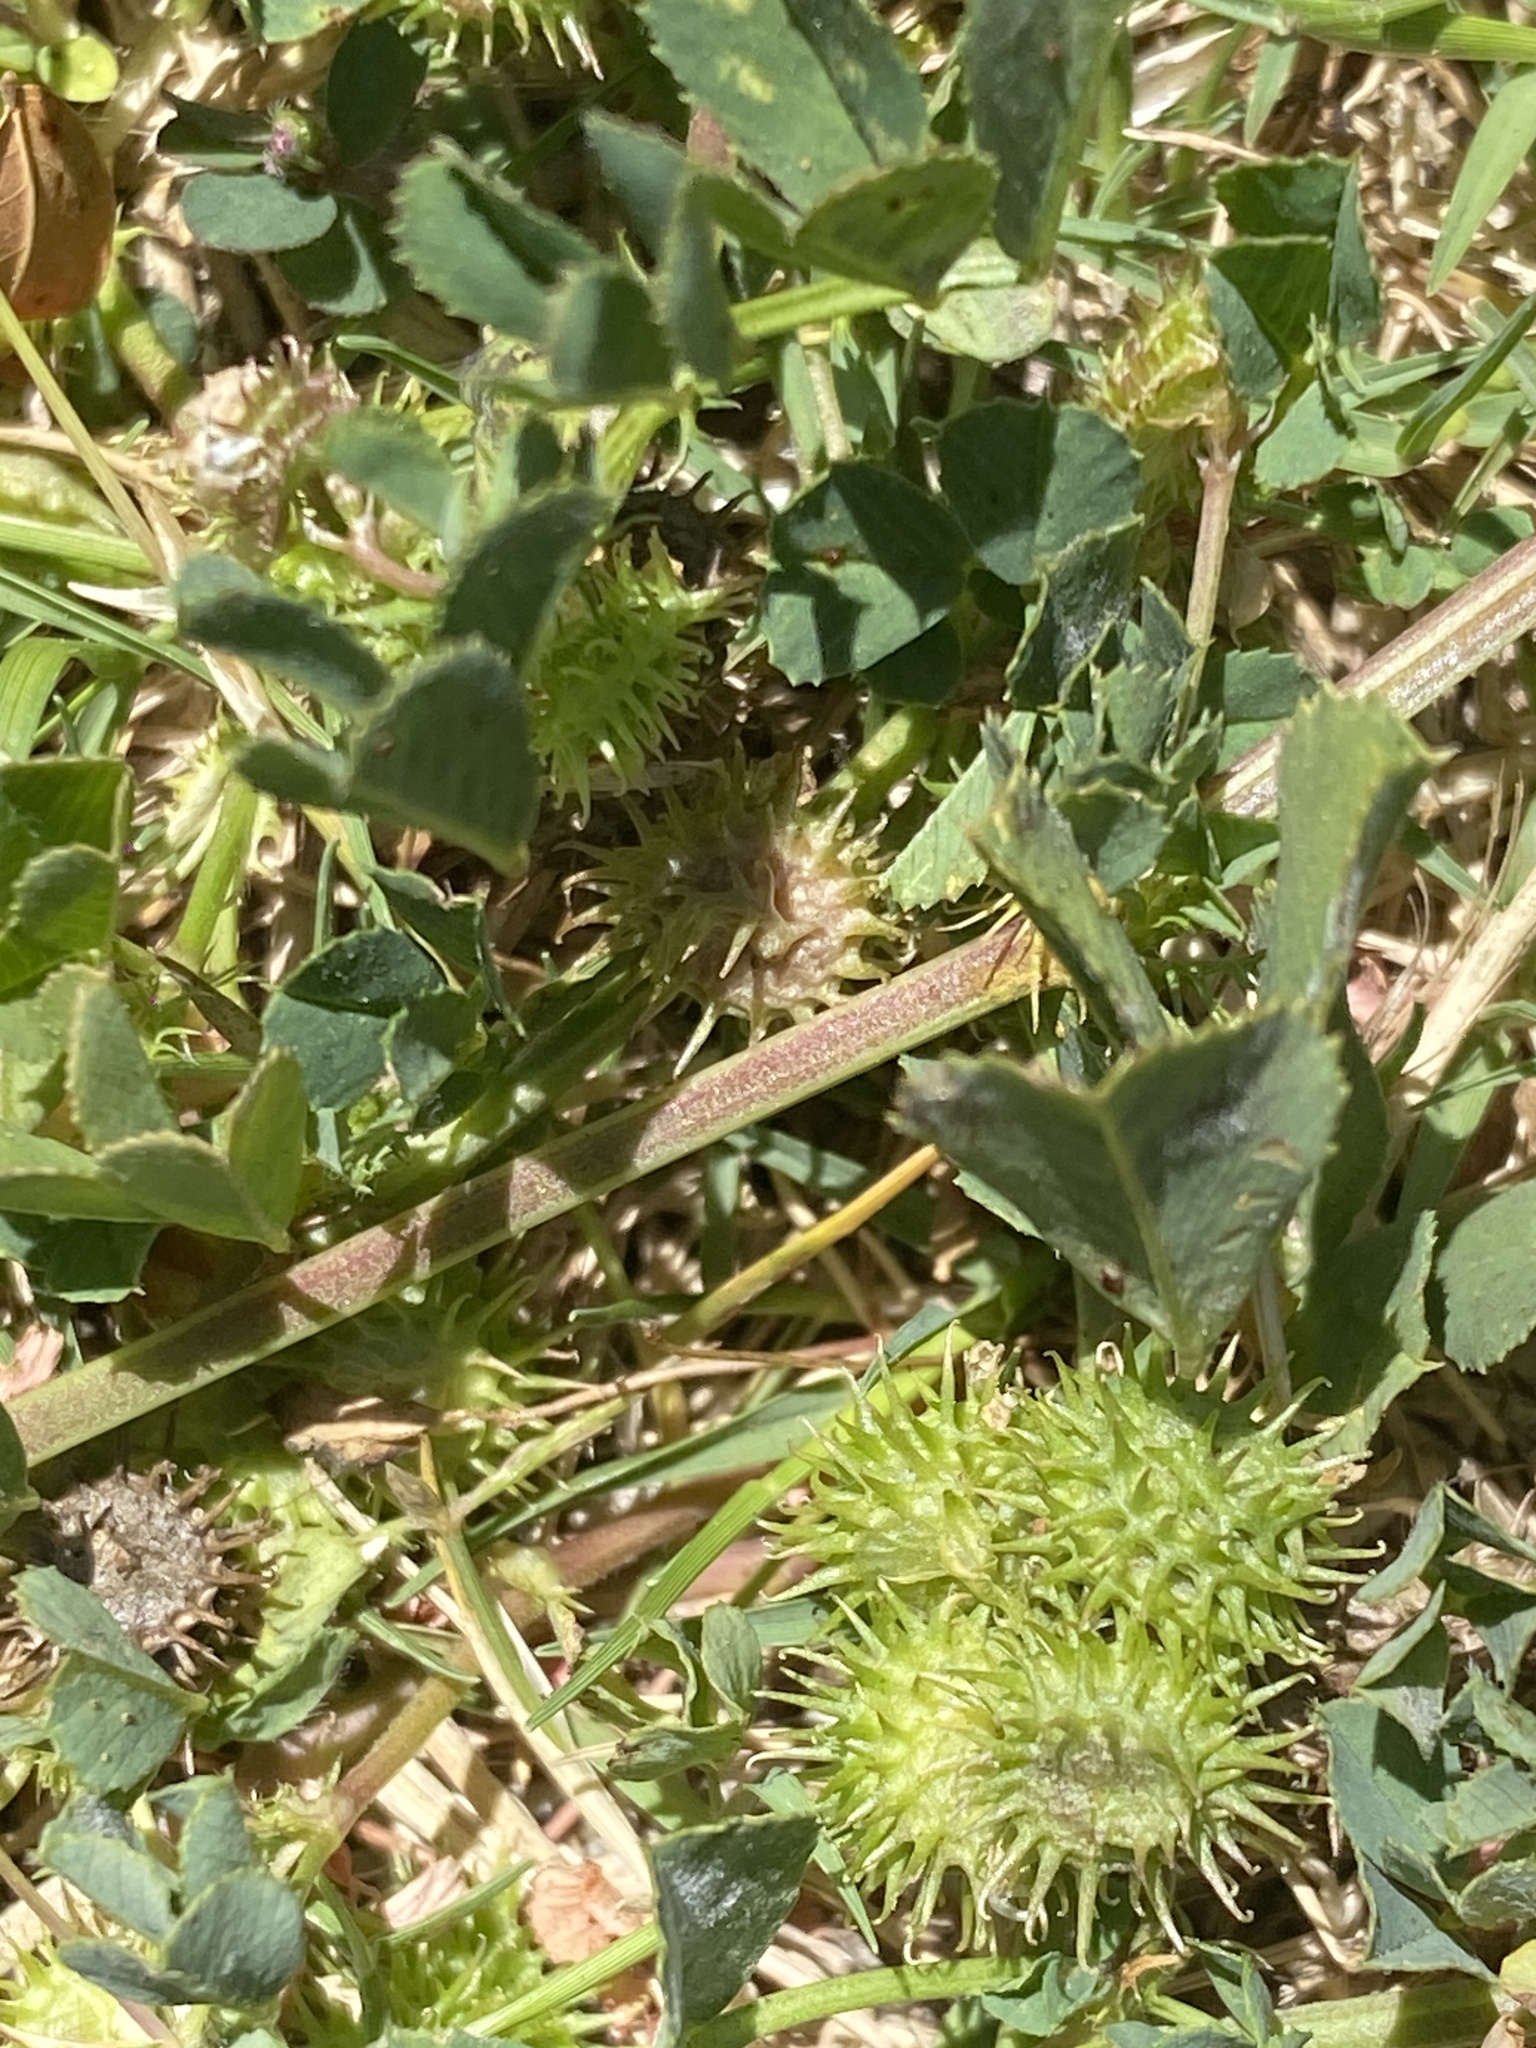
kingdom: Plantae
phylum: Tracheophyta
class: Magnoliopsida
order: Fabales
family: Fabaceae
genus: Medicago
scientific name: Medicago polymorpha
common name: Burclover
